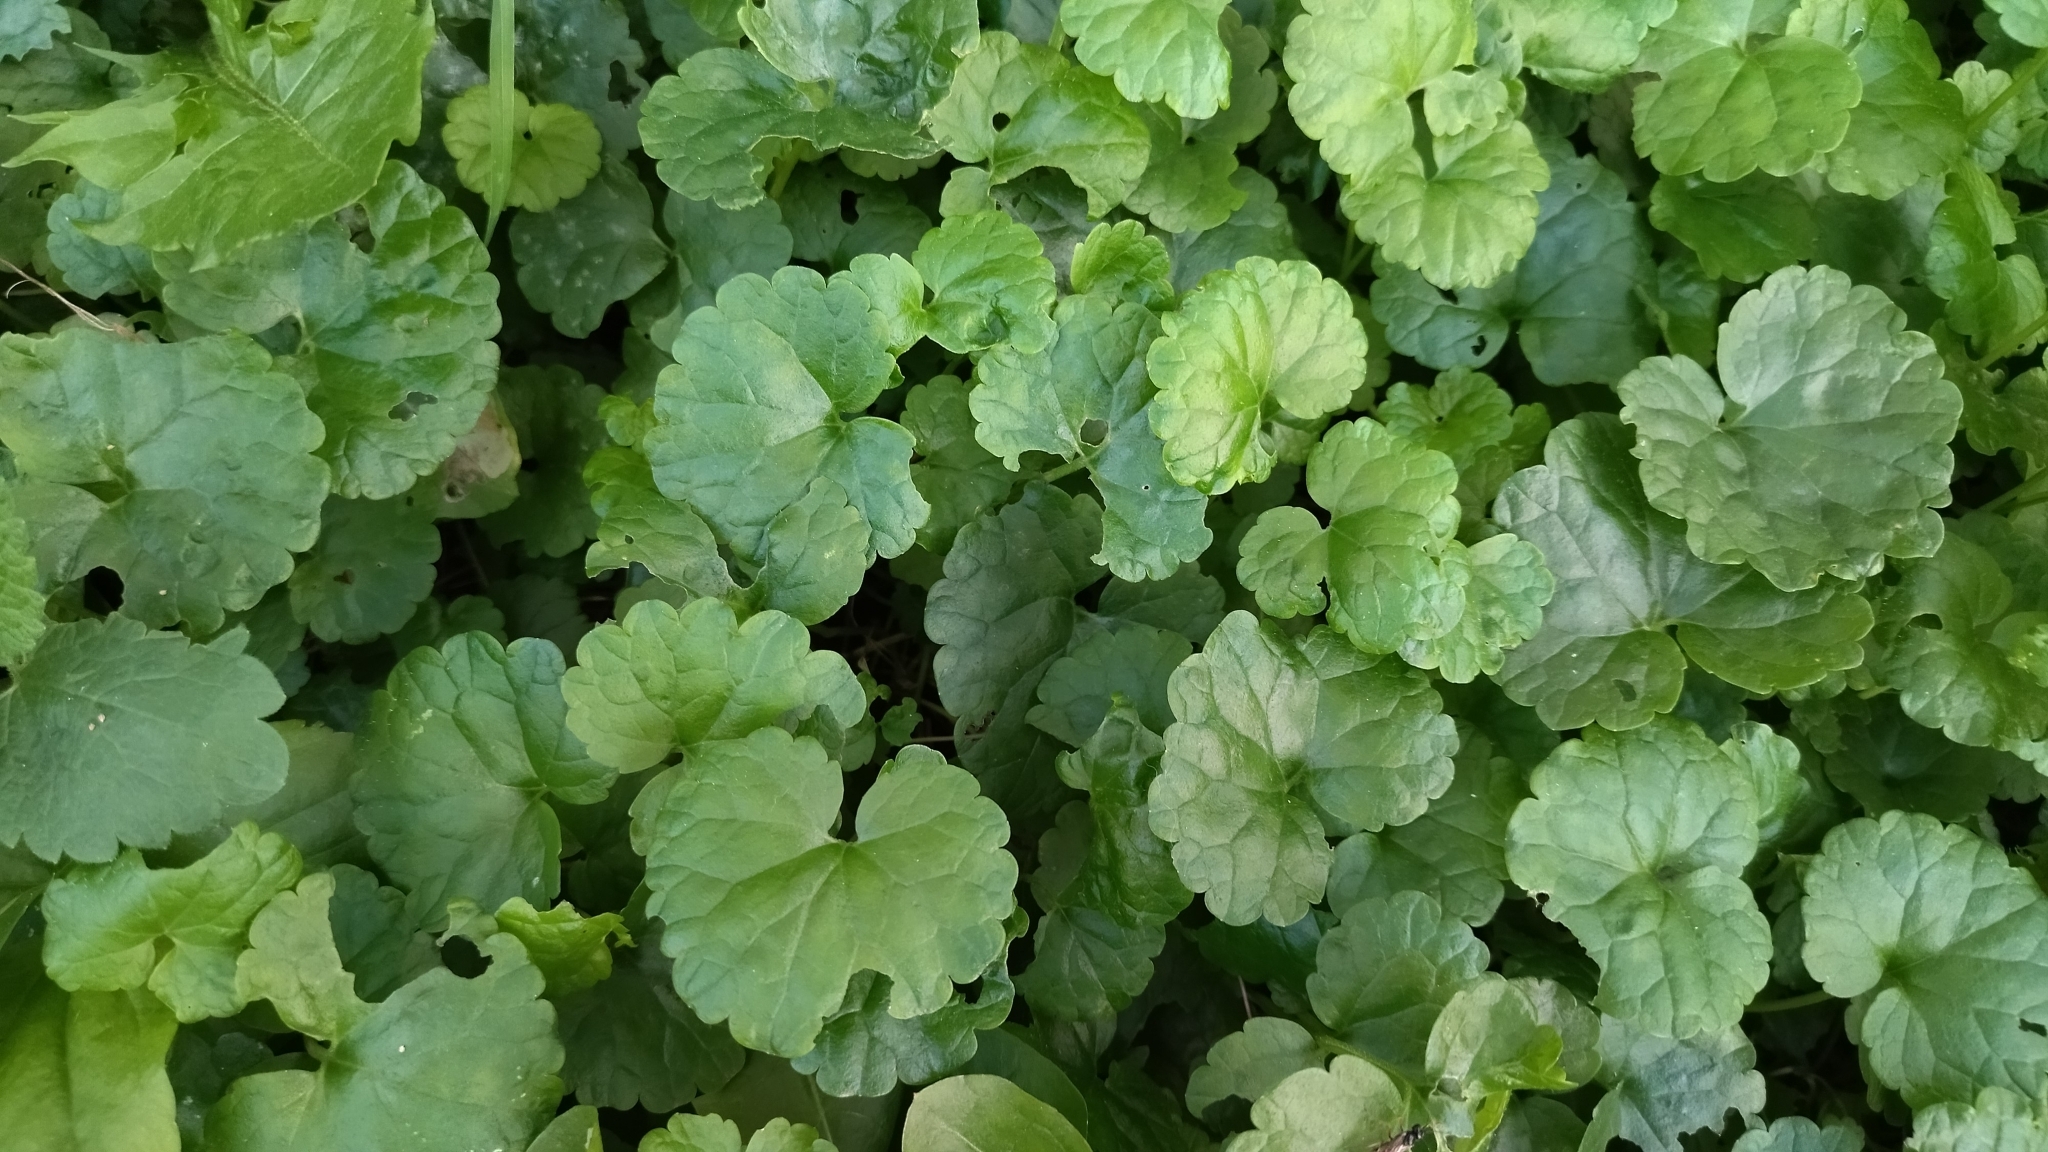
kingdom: Plantae
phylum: Tracheophyta
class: Magnoliopsida
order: Lamiales
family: Lamiaceae
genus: Glechoma
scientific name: Glechoma hederacea
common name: Ground ivy
